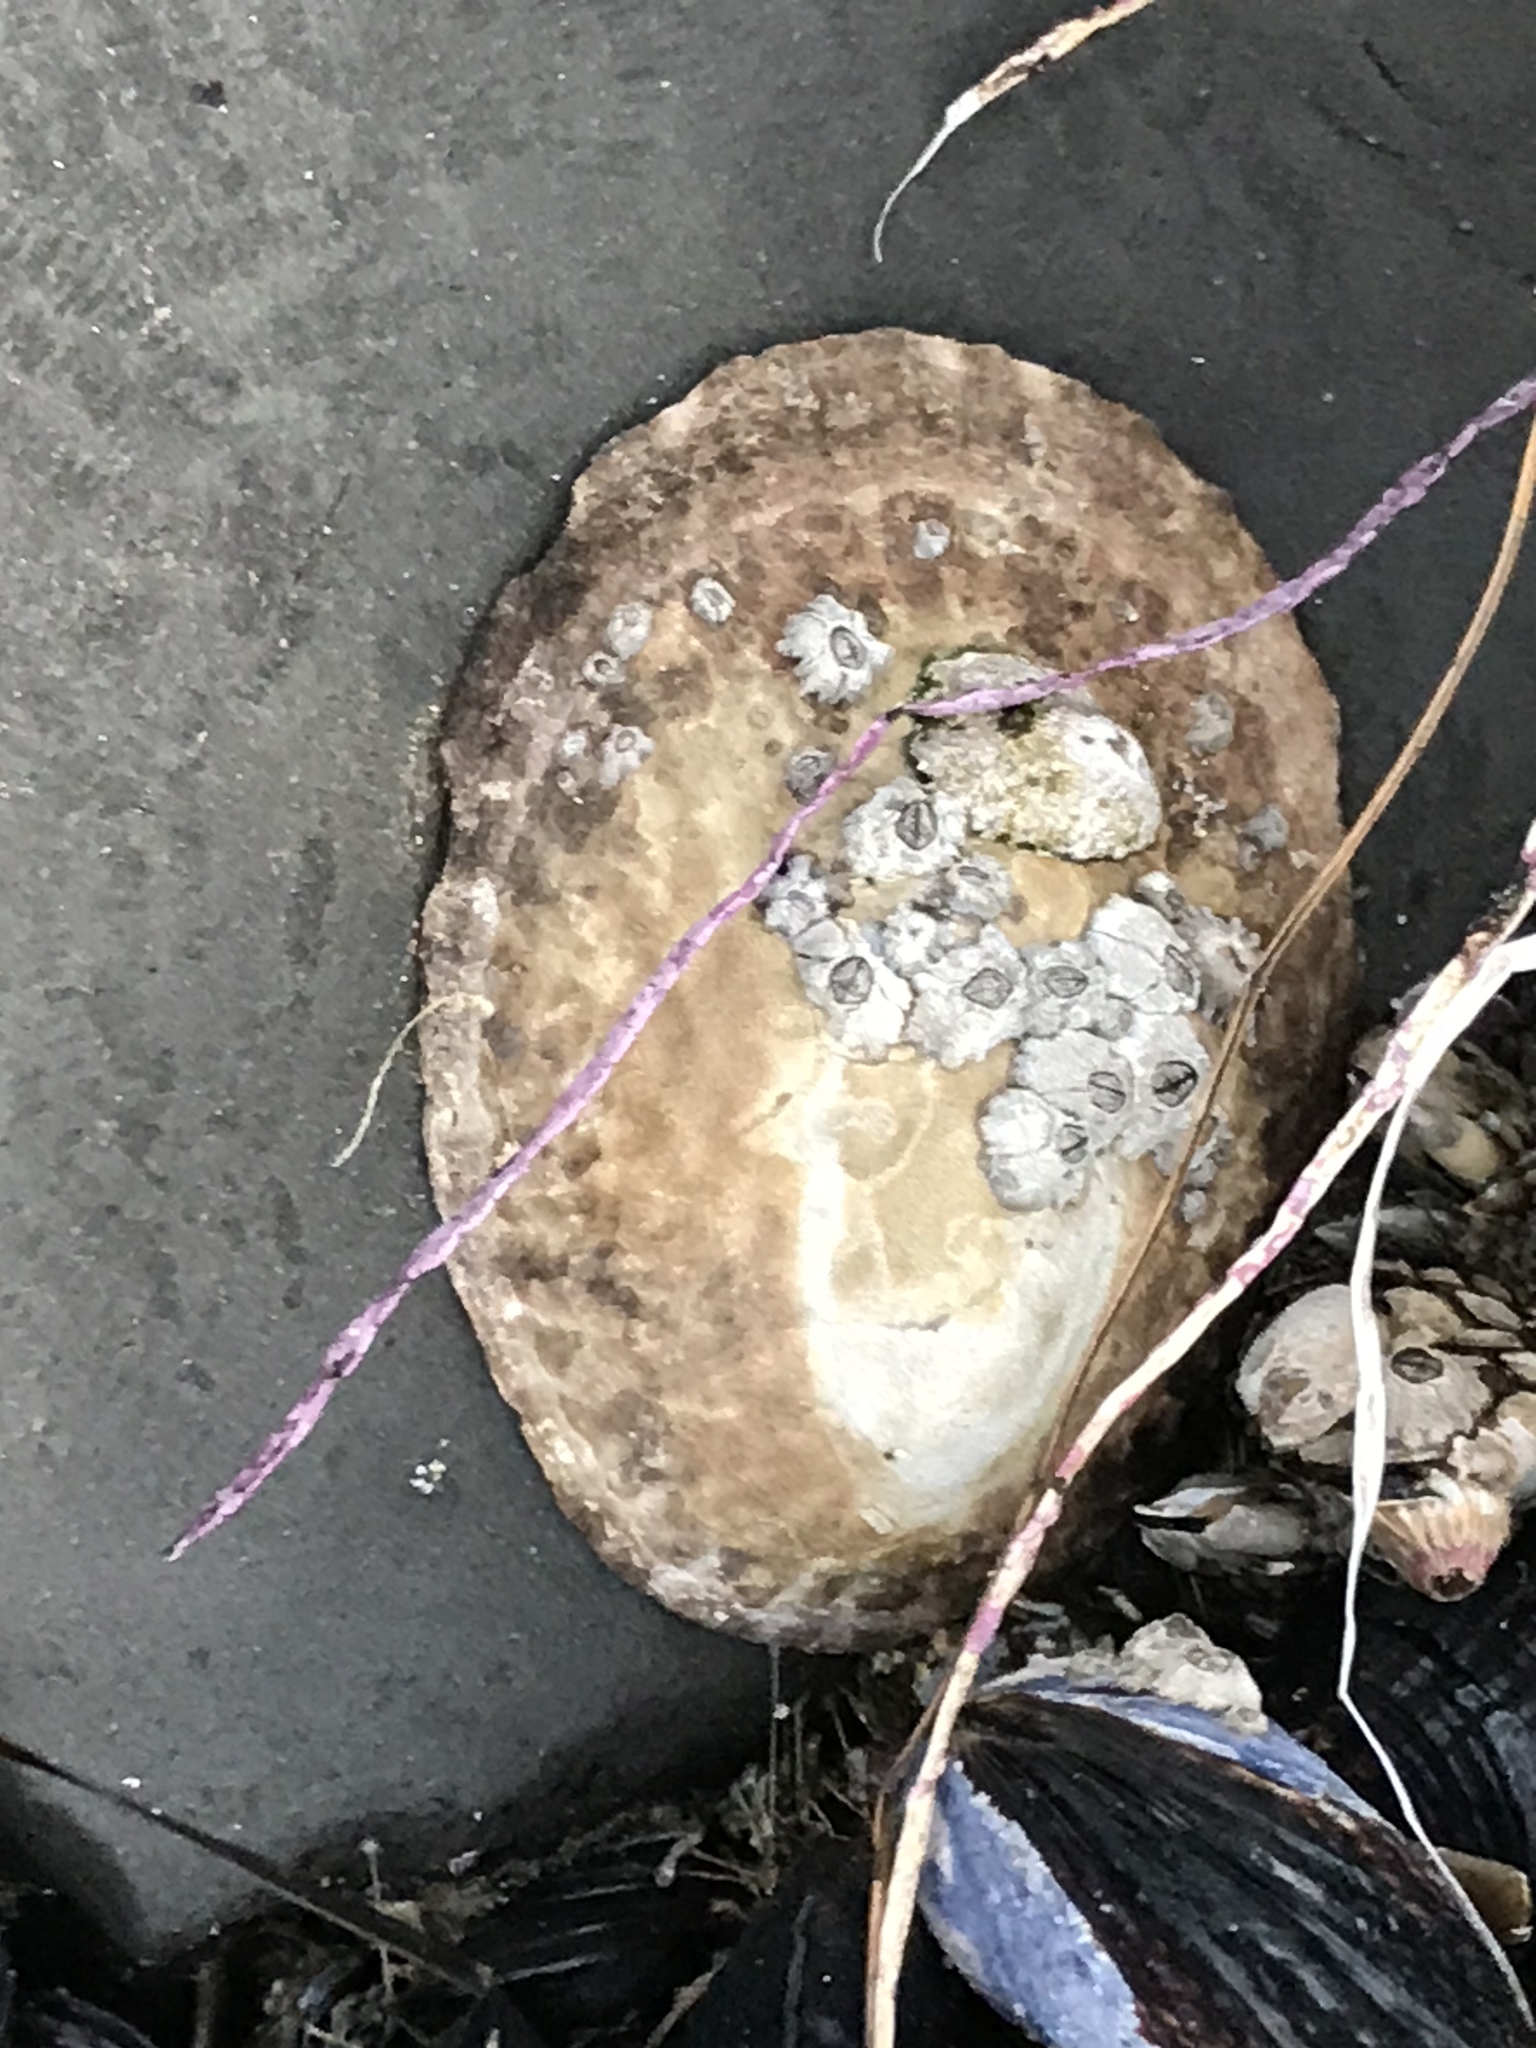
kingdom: Animalia
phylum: Mollusca
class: Gastropoda
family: Lottiidae
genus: Lottia
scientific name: Lottia gigantea
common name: Owl limpet
